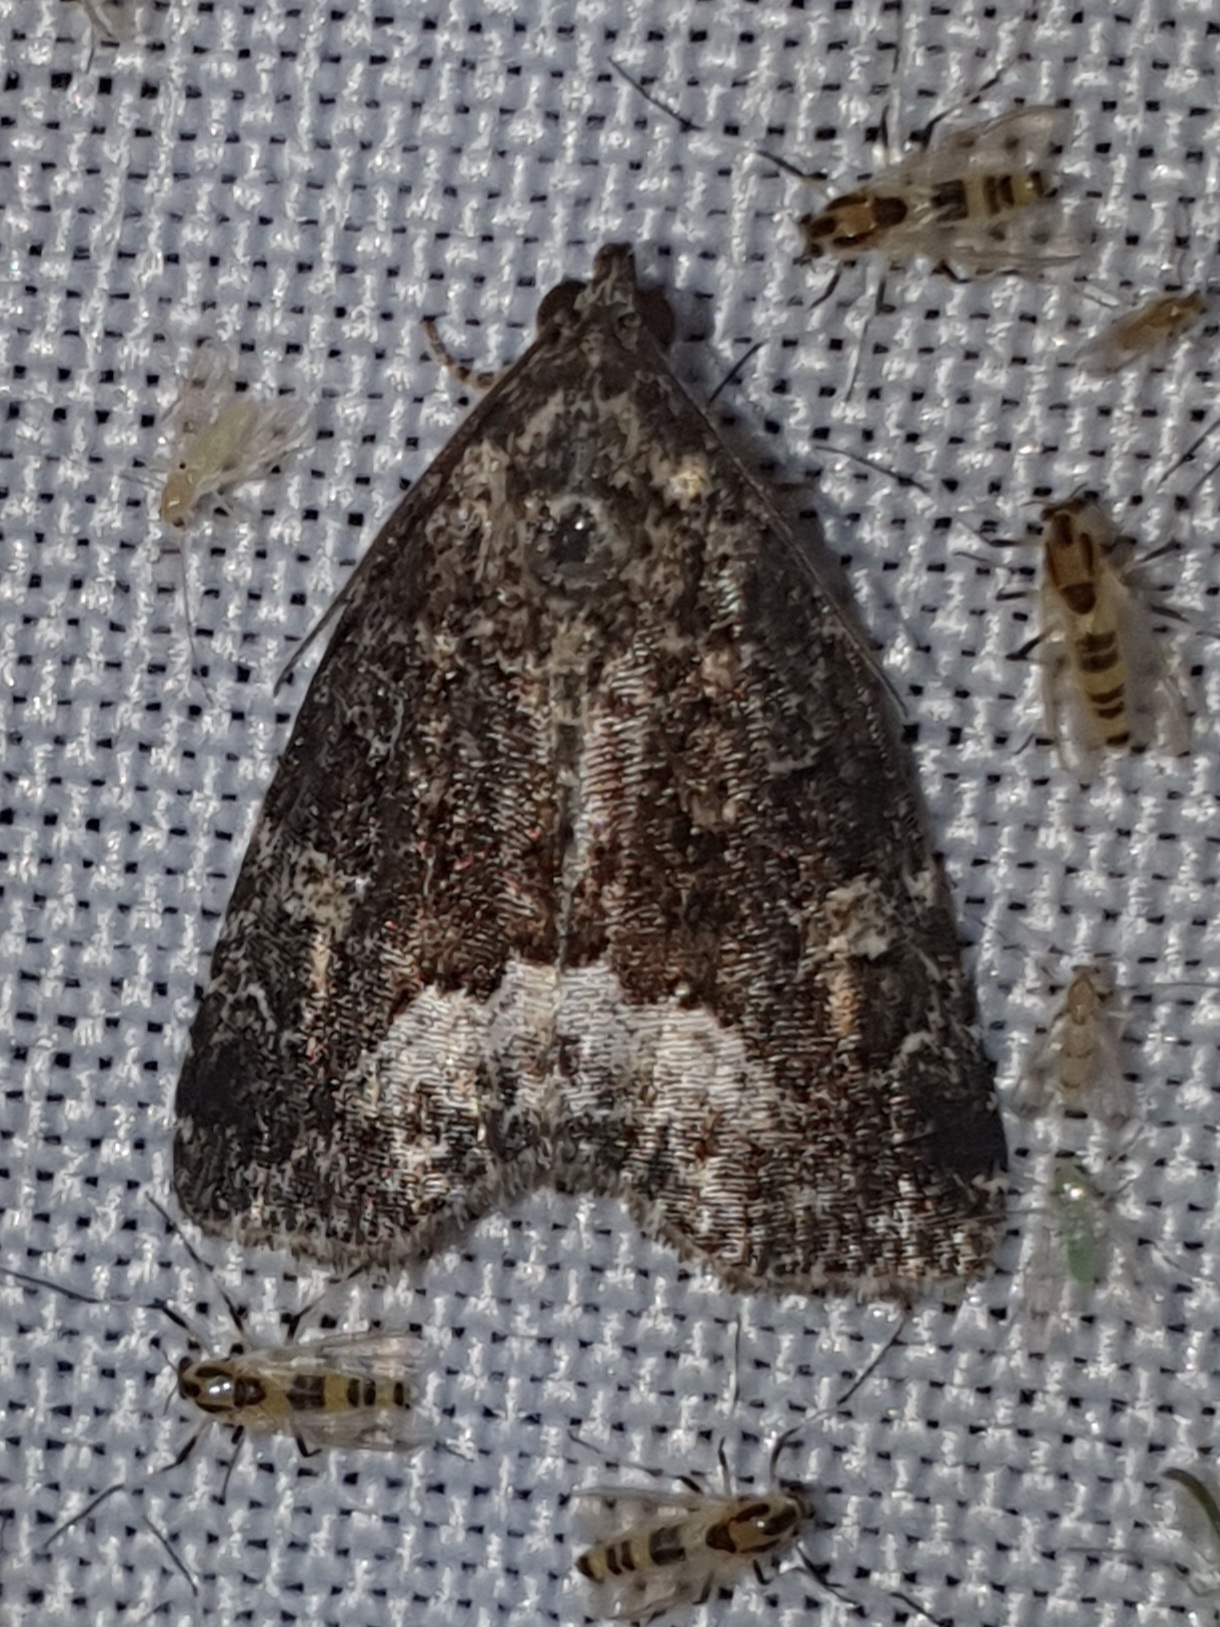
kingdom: Animalia
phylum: Arthropoda
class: Insecta
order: Lepidoptera
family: Noctuidae
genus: Deltote
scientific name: Deltote pygarga
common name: Marbled white spot
